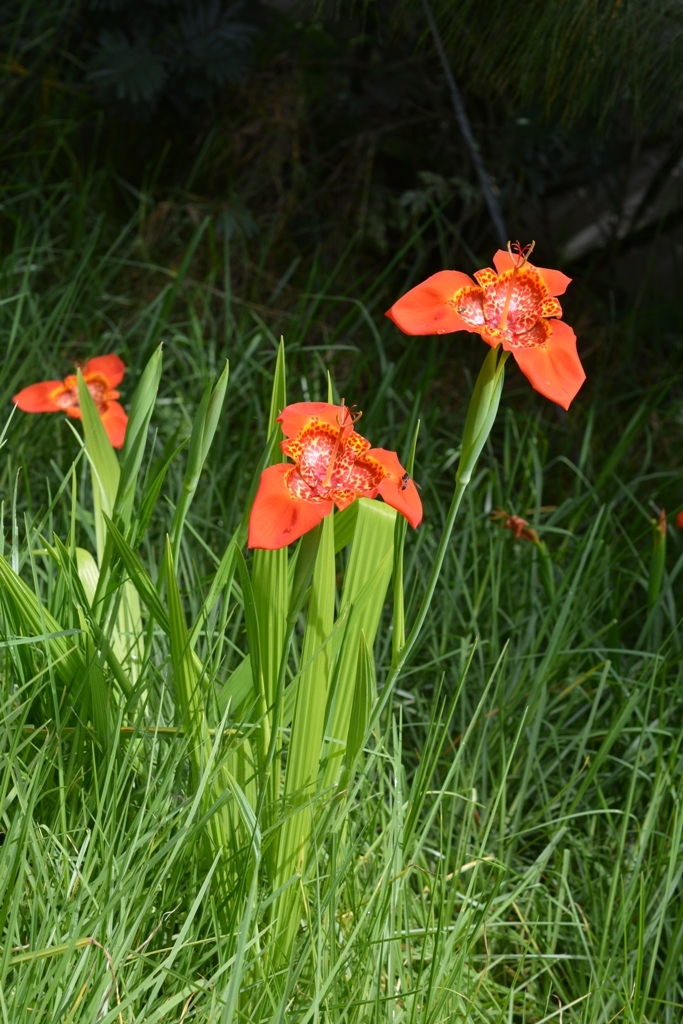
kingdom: Plantae
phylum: Tracheophyta
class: Liliopsida
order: Asparagales
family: Iridaceae
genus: Tigridia
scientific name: Tigridia pavonia
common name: Peacock-flower
